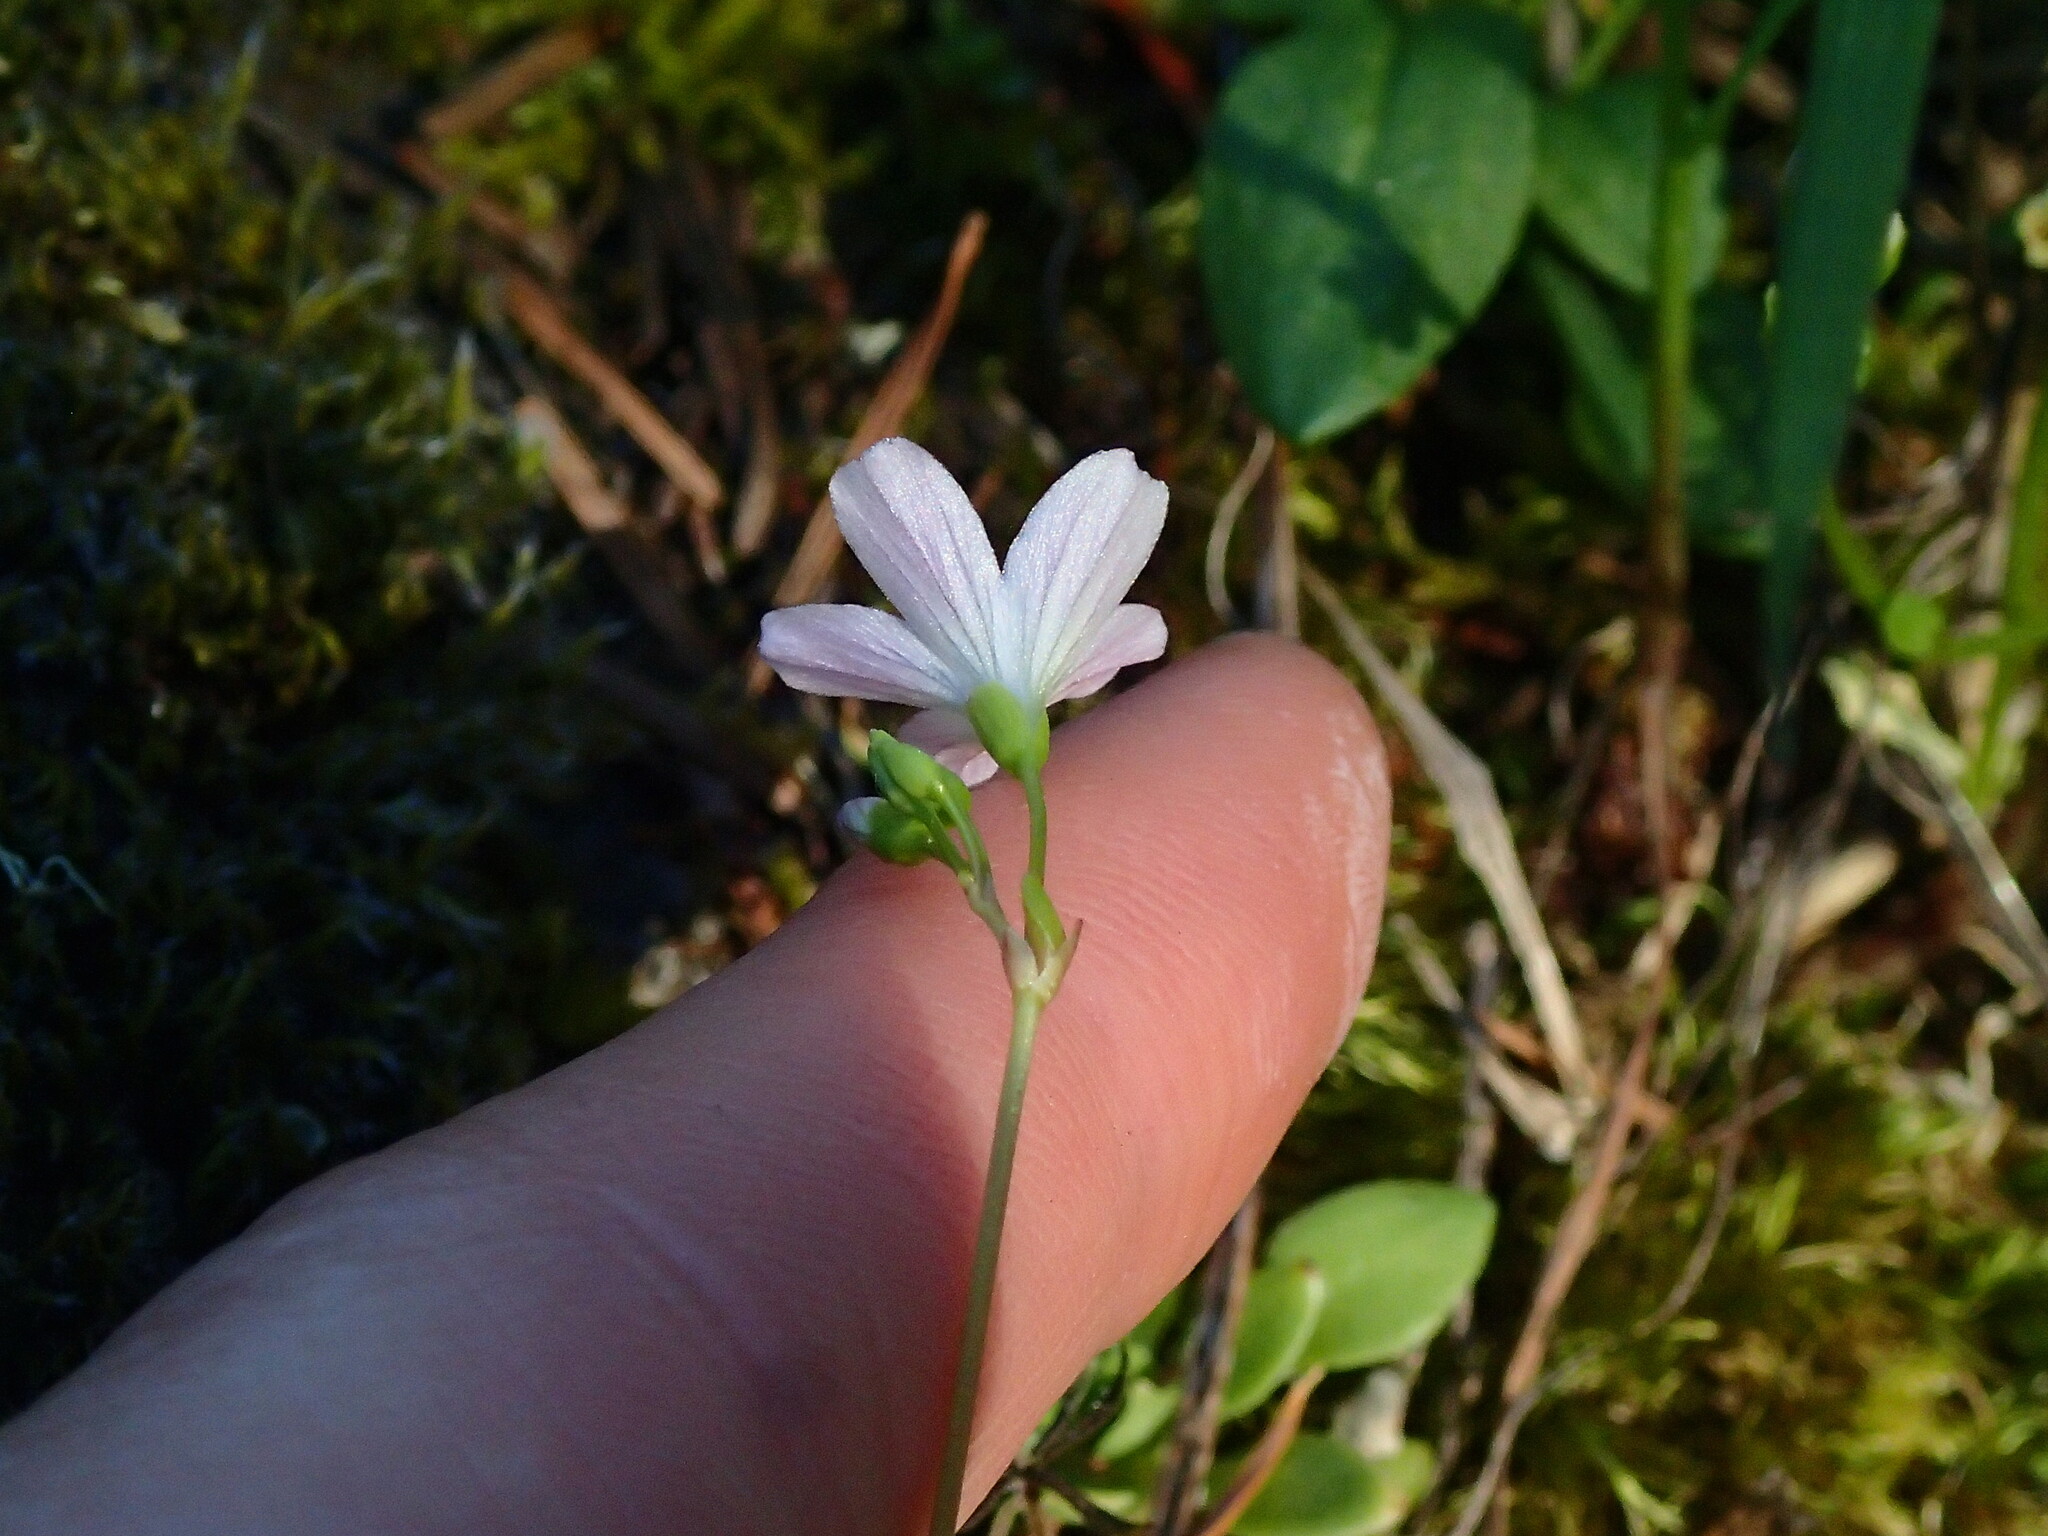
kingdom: Plantae
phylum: Tracheophyta
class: Magnoliopsida
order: Caryophyllales
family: Montiaceae
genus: Montia
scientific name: Montia parvifolia
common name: Small-leaved blinks
